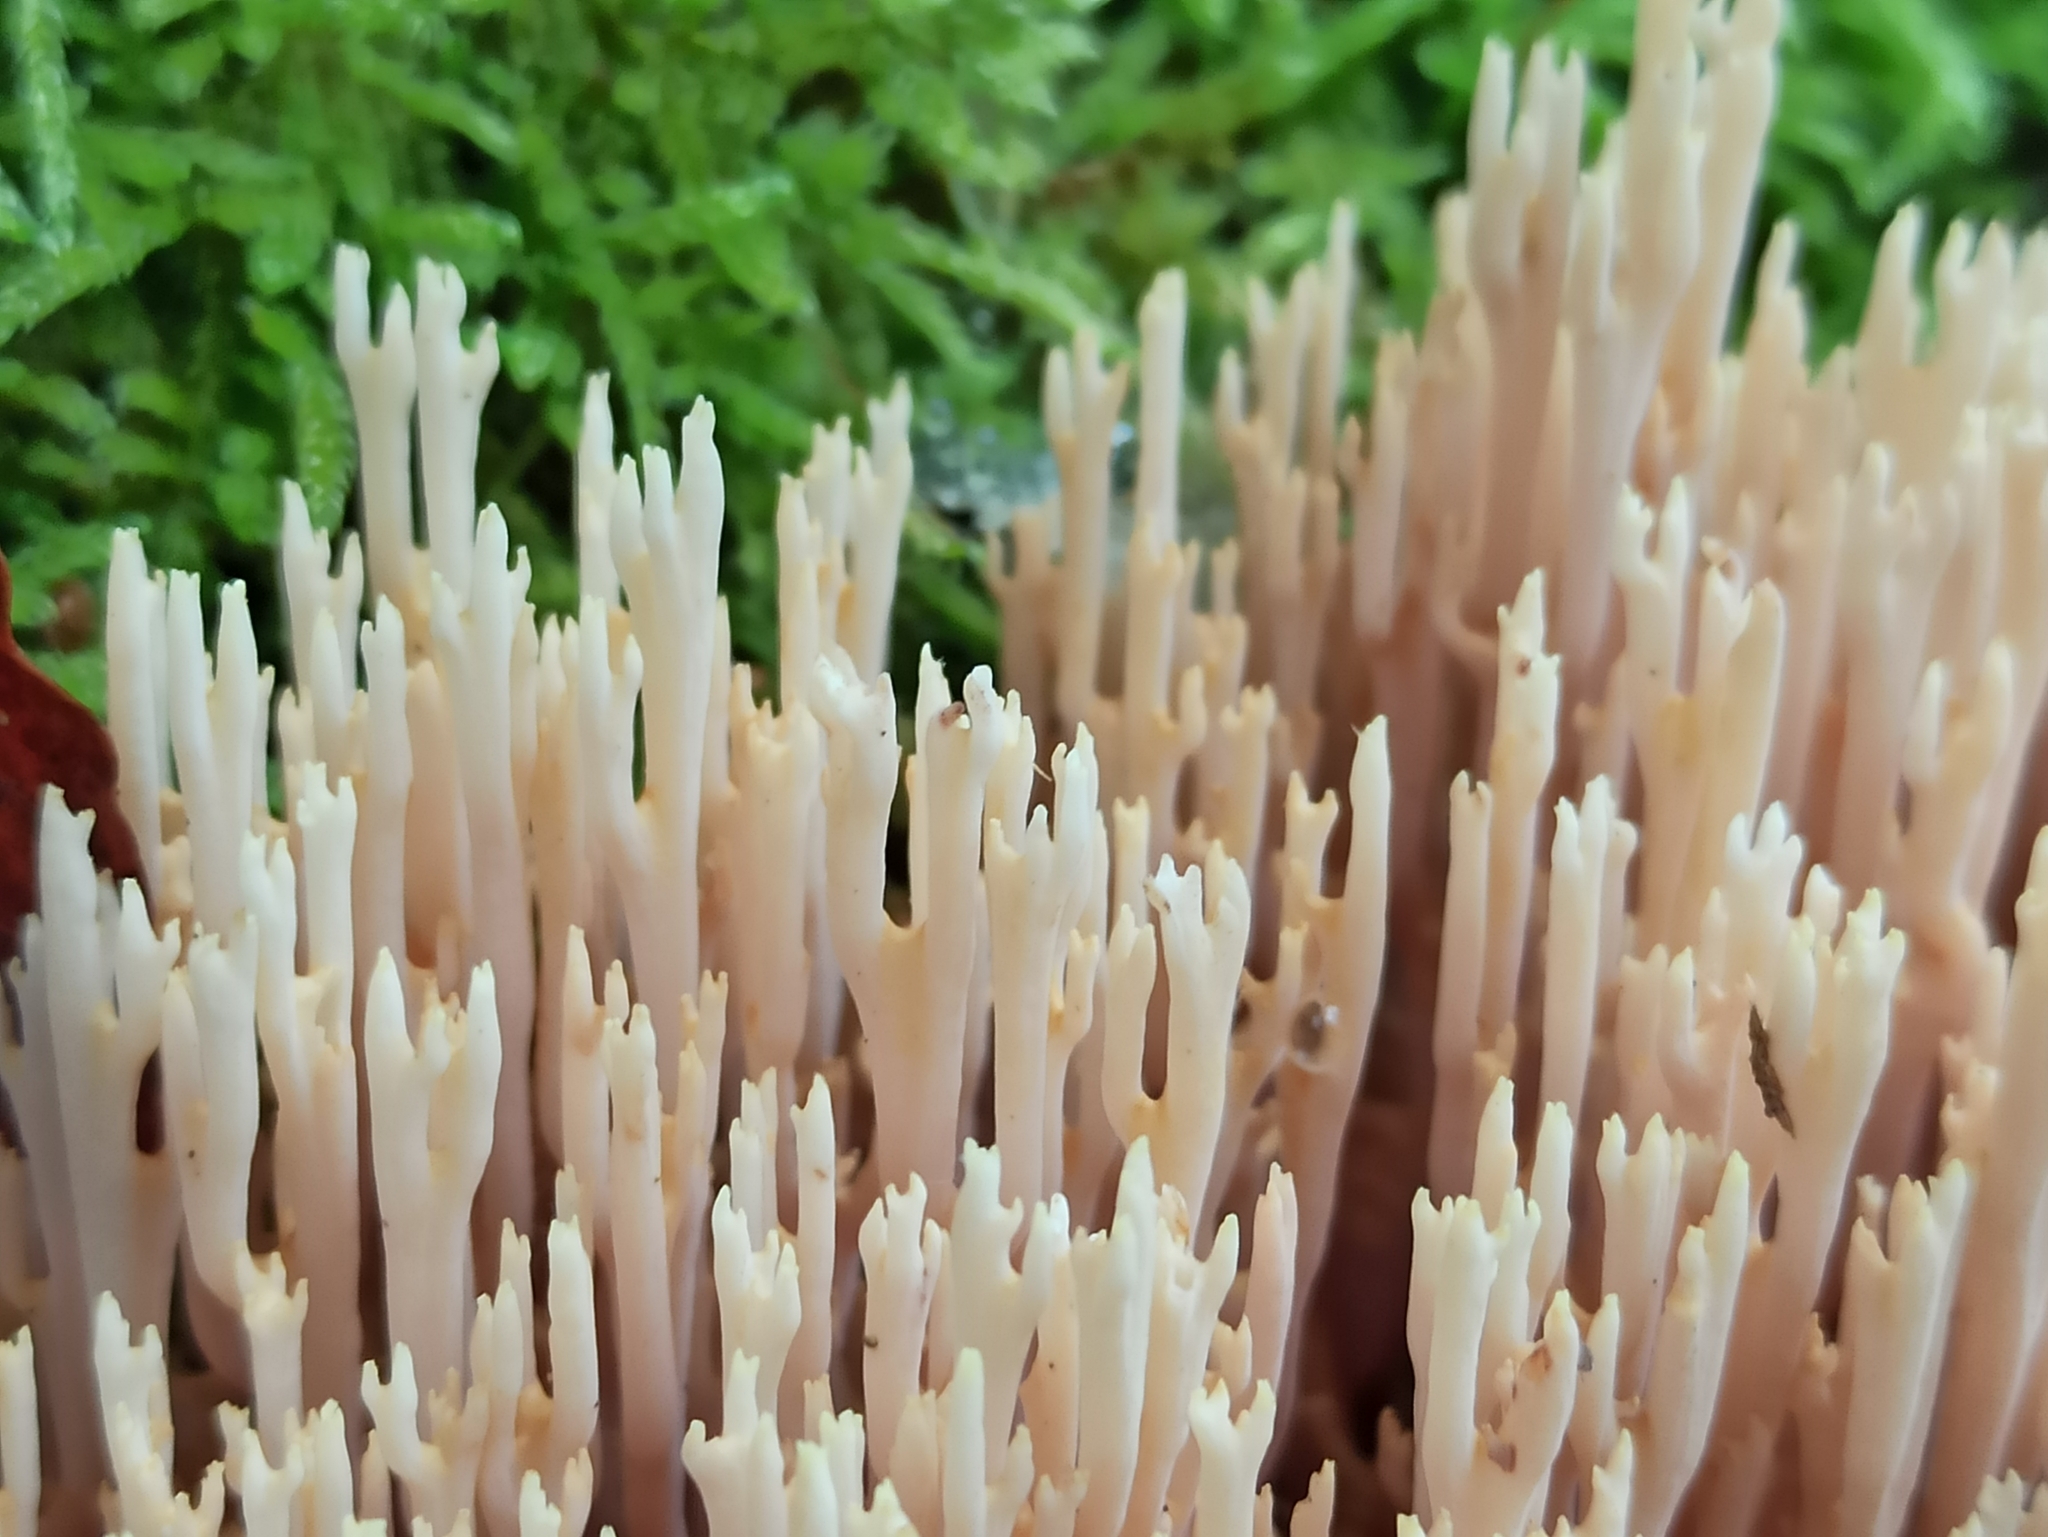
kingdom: Fungi
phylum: Basidiomycota
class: Agaricomycetes
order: Gomphales
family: Gomphaceae
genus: Ramaria
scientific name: Ramaria stricta
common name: Upright coral
